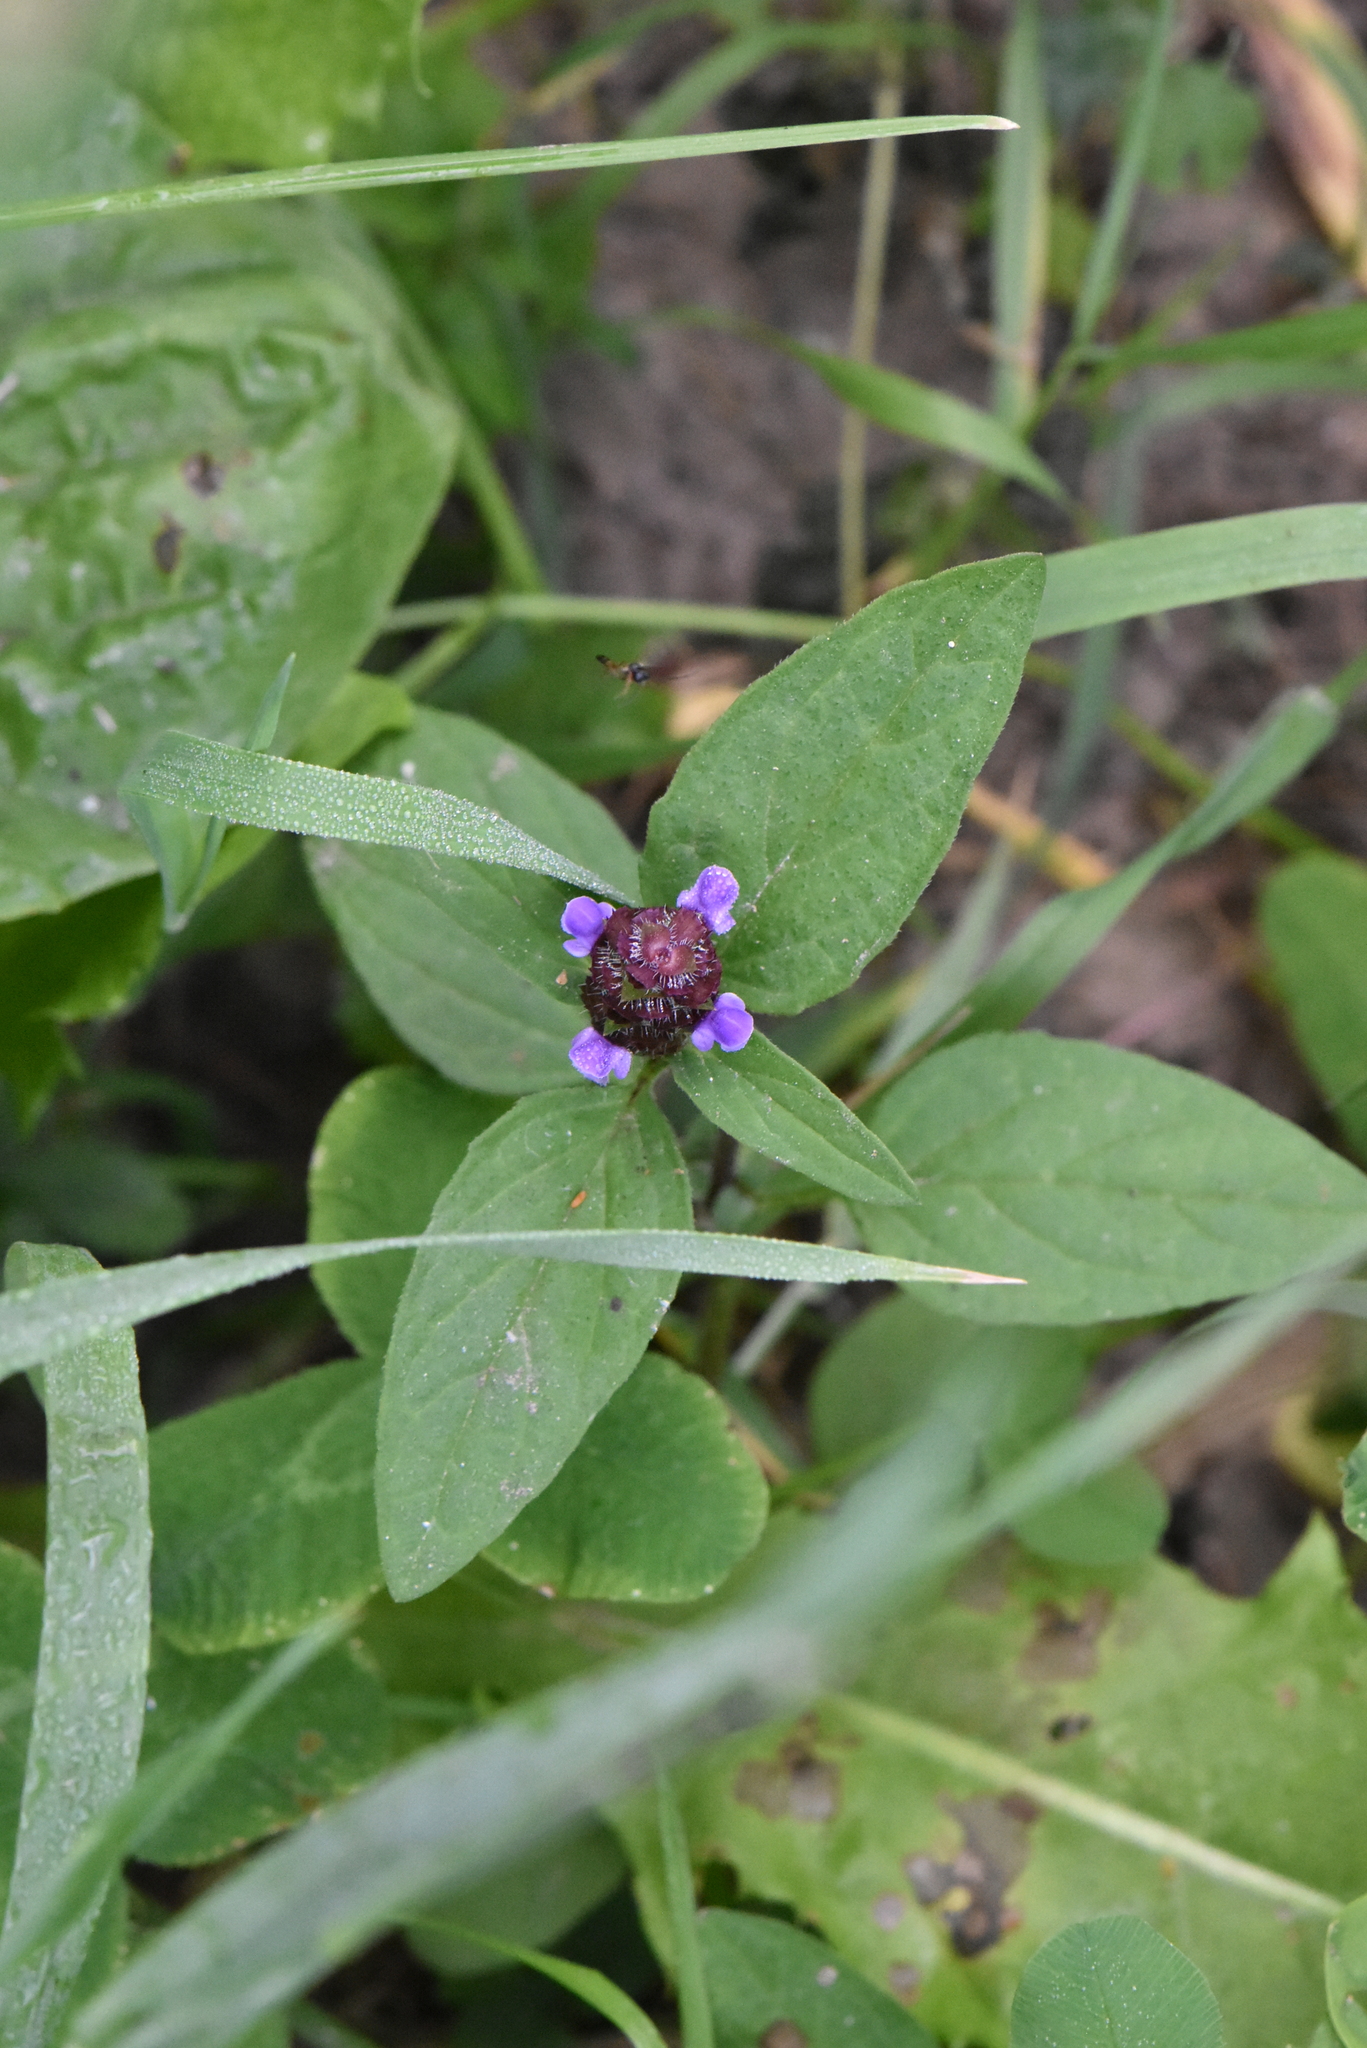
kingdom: Plantae
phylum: Tracheophyta
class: Magnoliopsida
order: Lamiales
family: Lamiaceae
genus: Prunella
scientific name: Prunella vulgaris
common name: Heal-all
